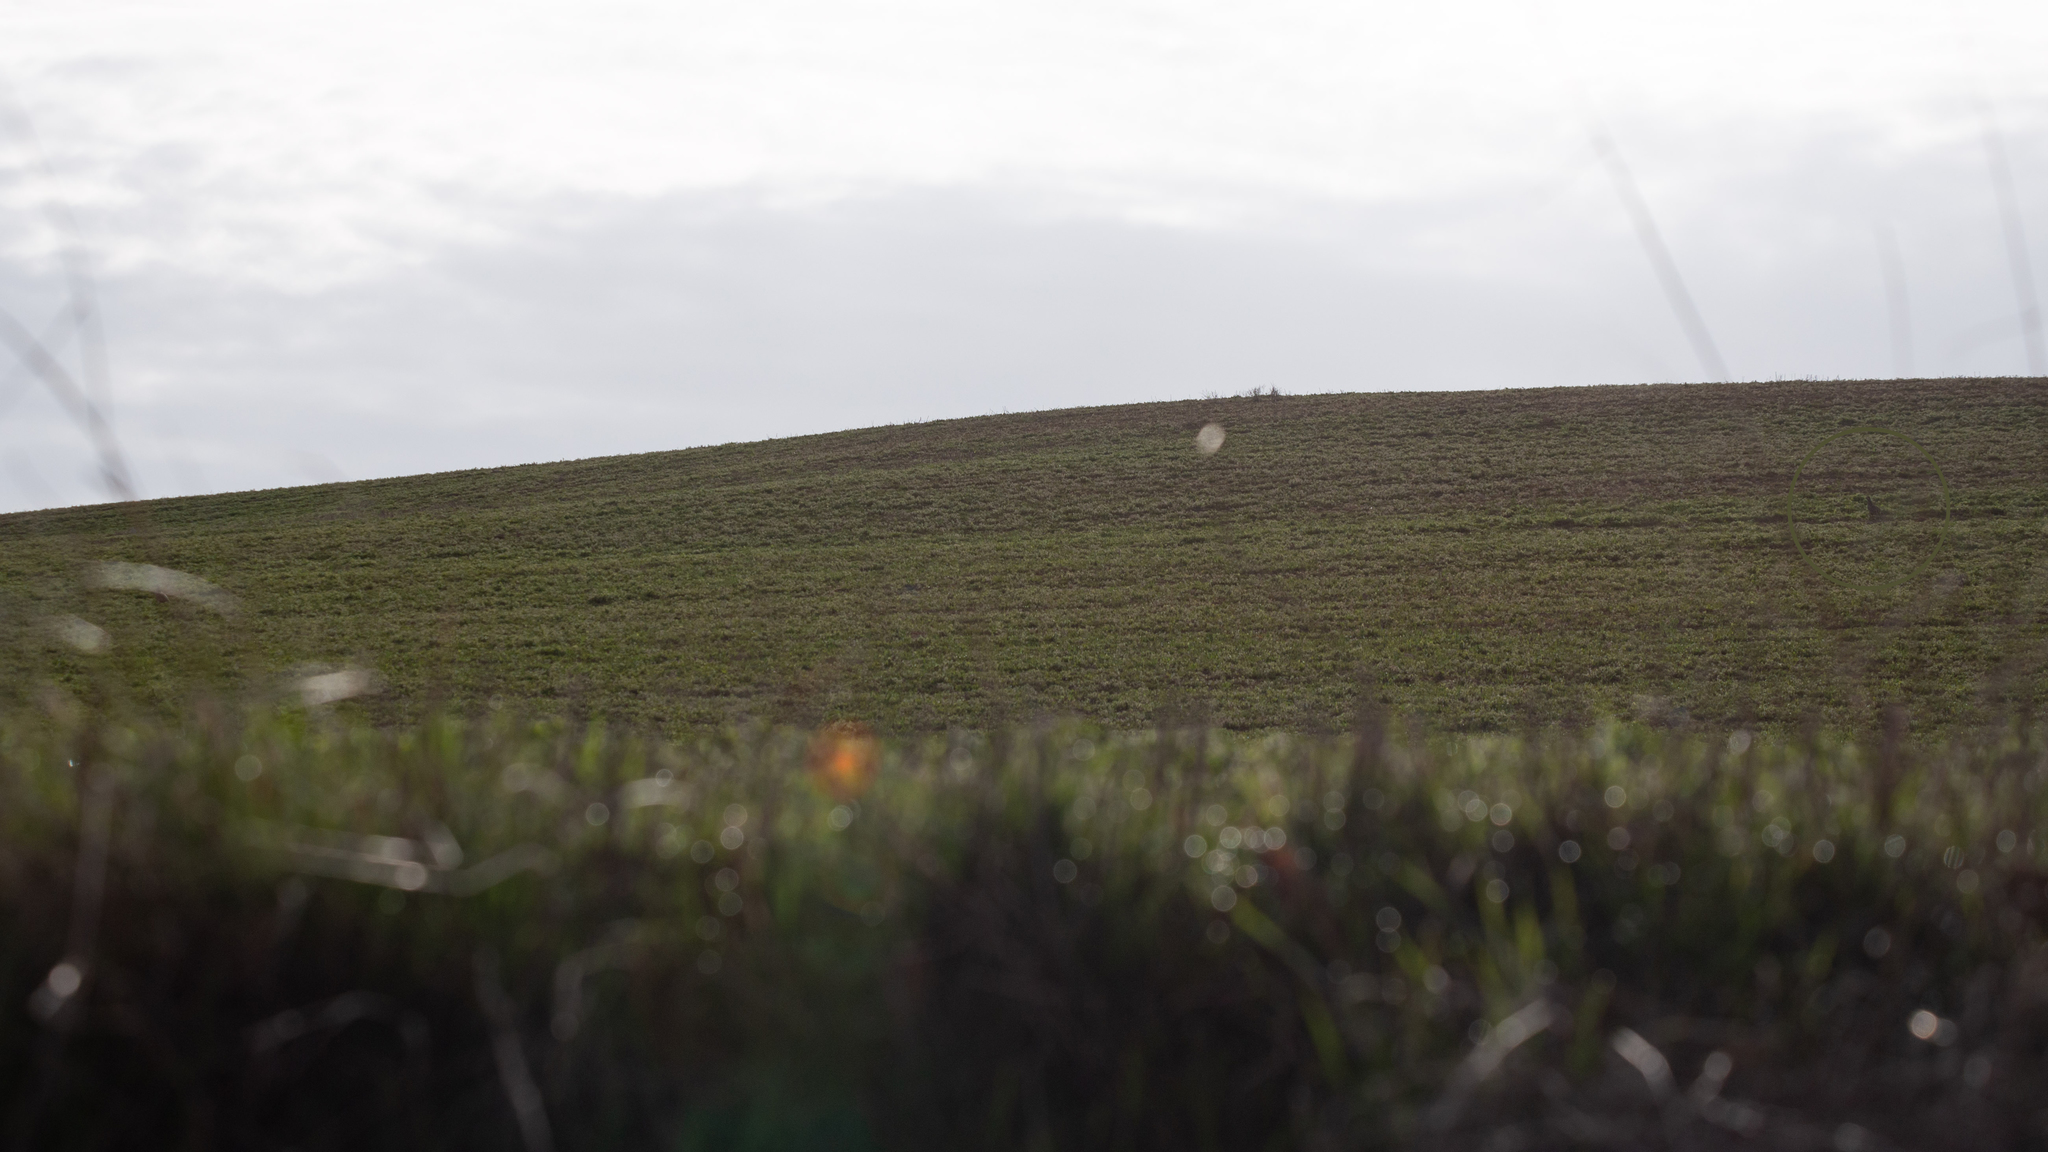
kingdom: Animalia
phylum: Chordata
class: Aves
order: Galliformes
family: Phasianidae
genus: Alectoris
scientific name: Alectoris rufa
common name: Red-legged partridge
